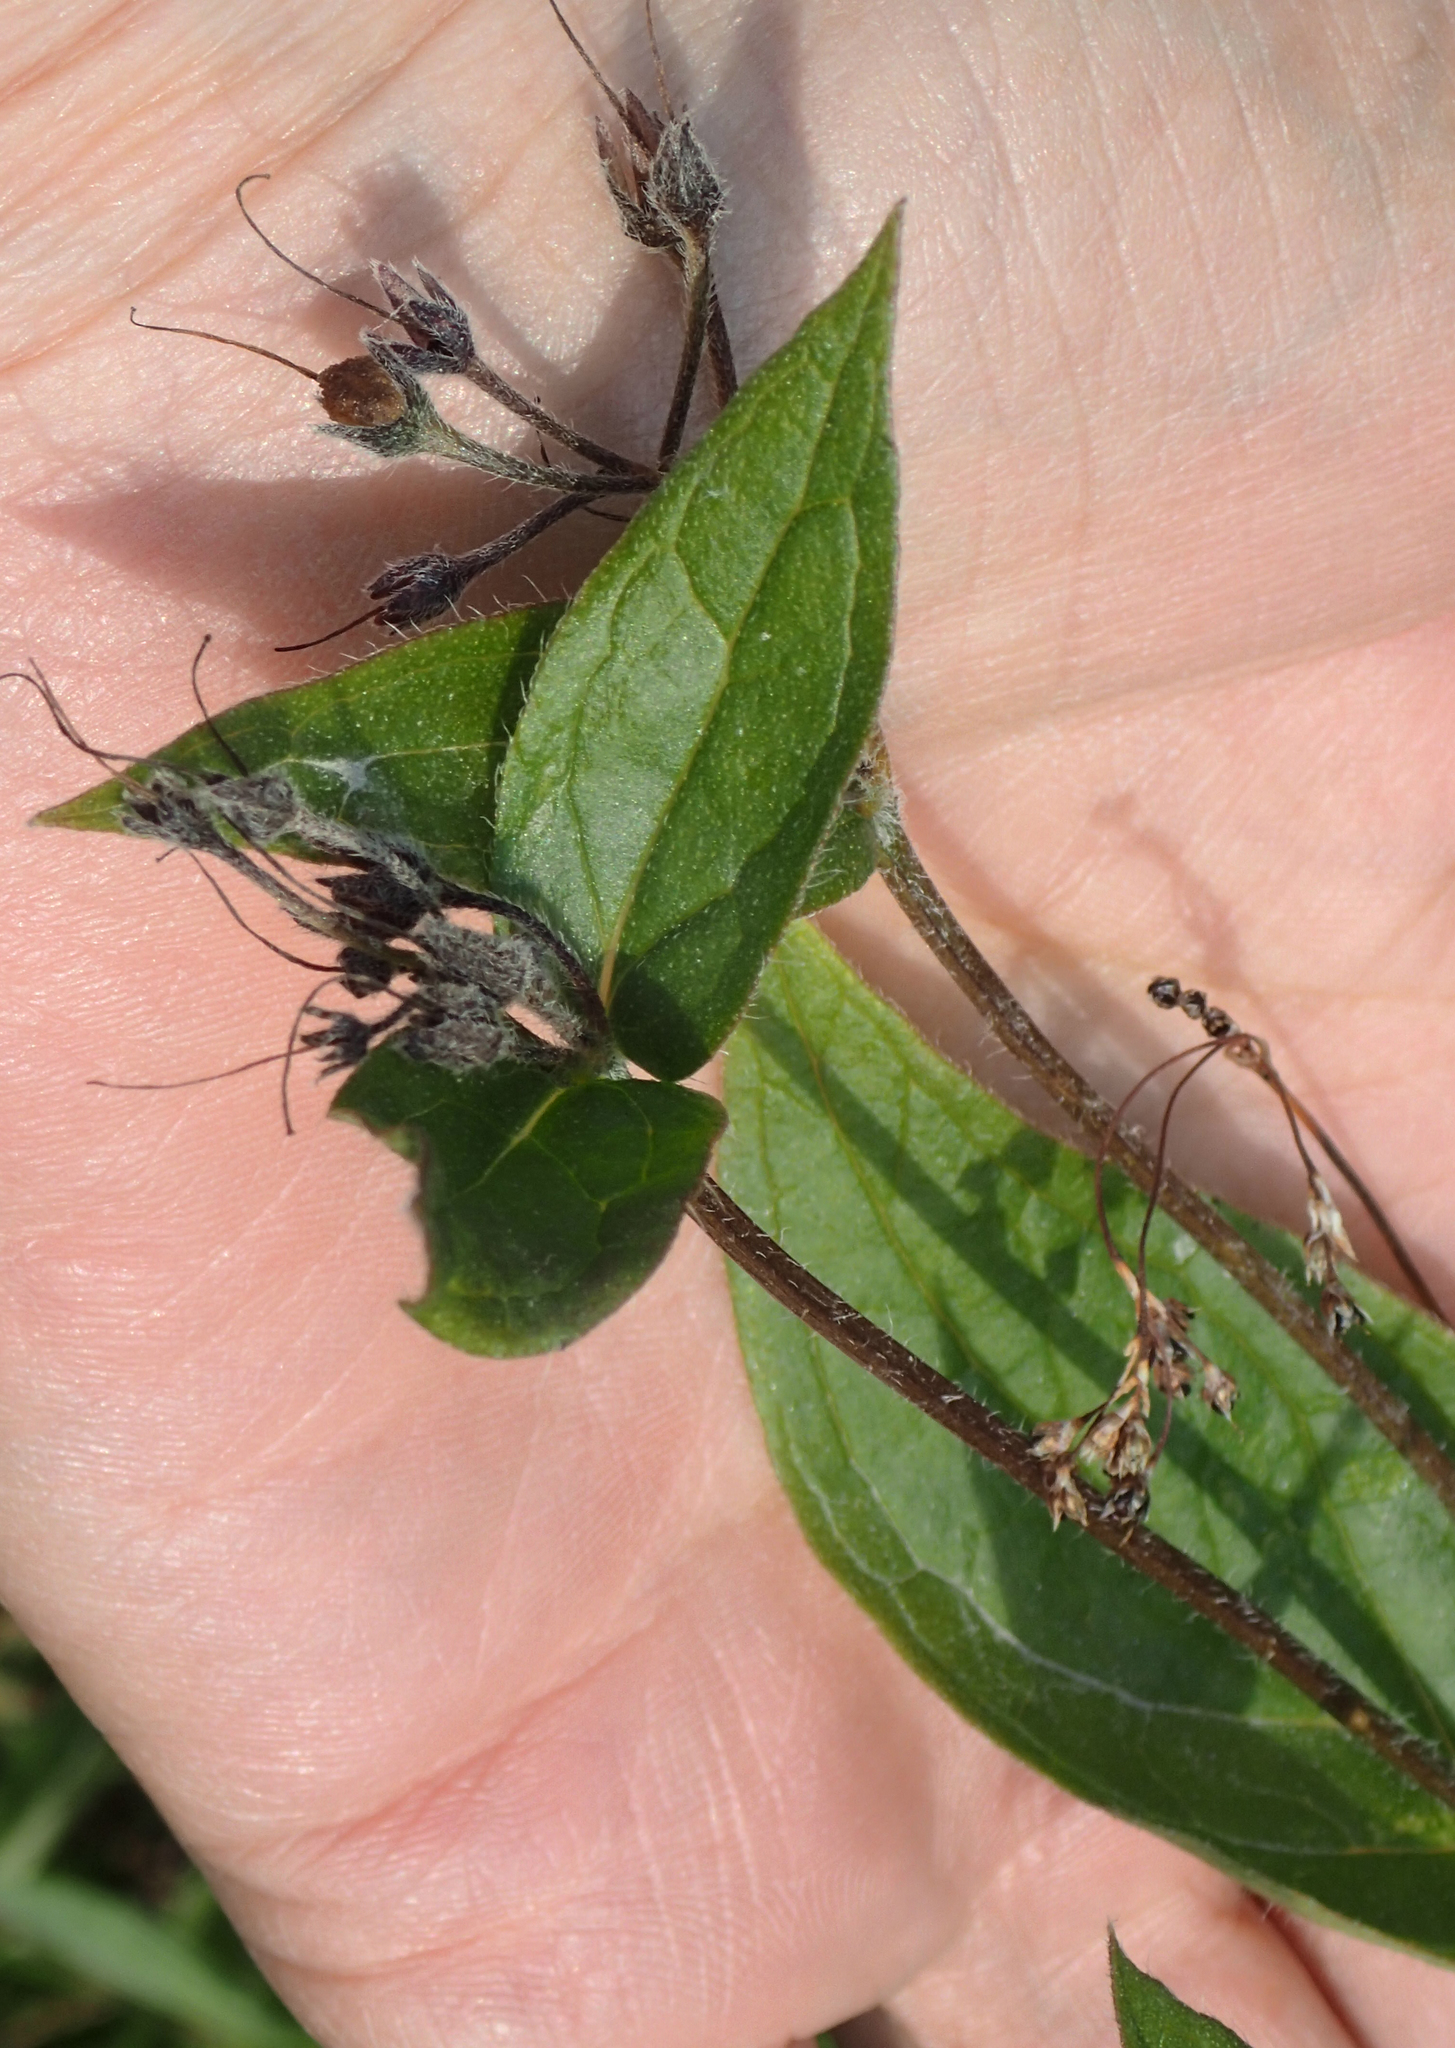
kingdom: Plantae
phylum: Tracheophyta
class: Magnoliopsida
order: Boraginales
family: Boraginaceae
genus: Mertensia
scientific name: Mertensia paniculata
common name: Panicled bluebells
